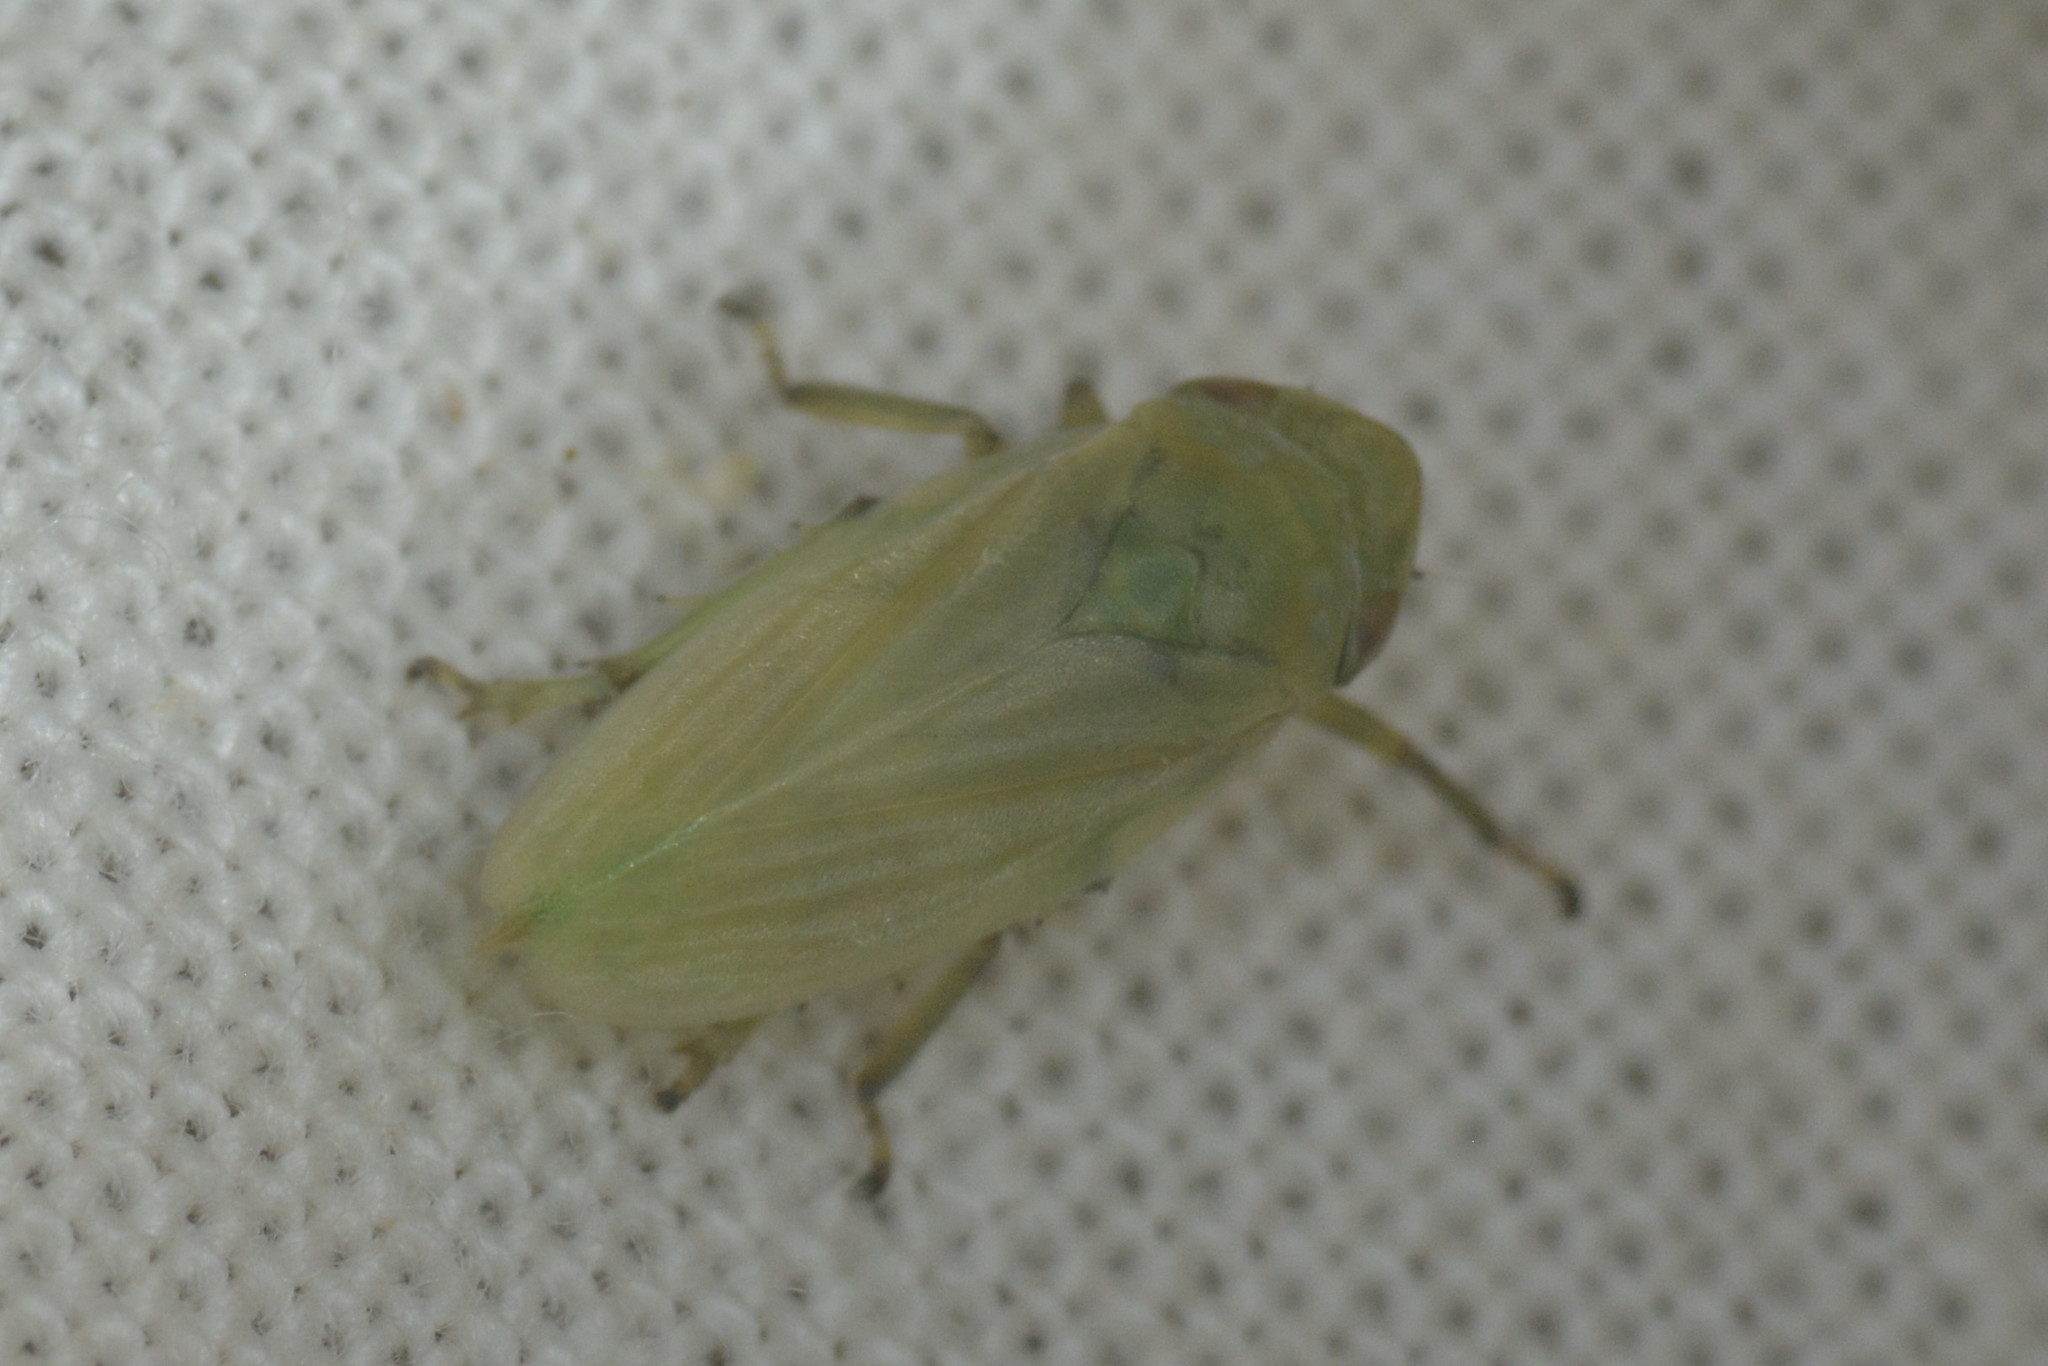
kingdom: Animalia
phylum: Arthropoda
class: Insecta
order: Hemiptera
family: Aphrophoridae
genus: Philaenus
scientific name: Philaenus spumarius
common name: Meadow spittlebug
